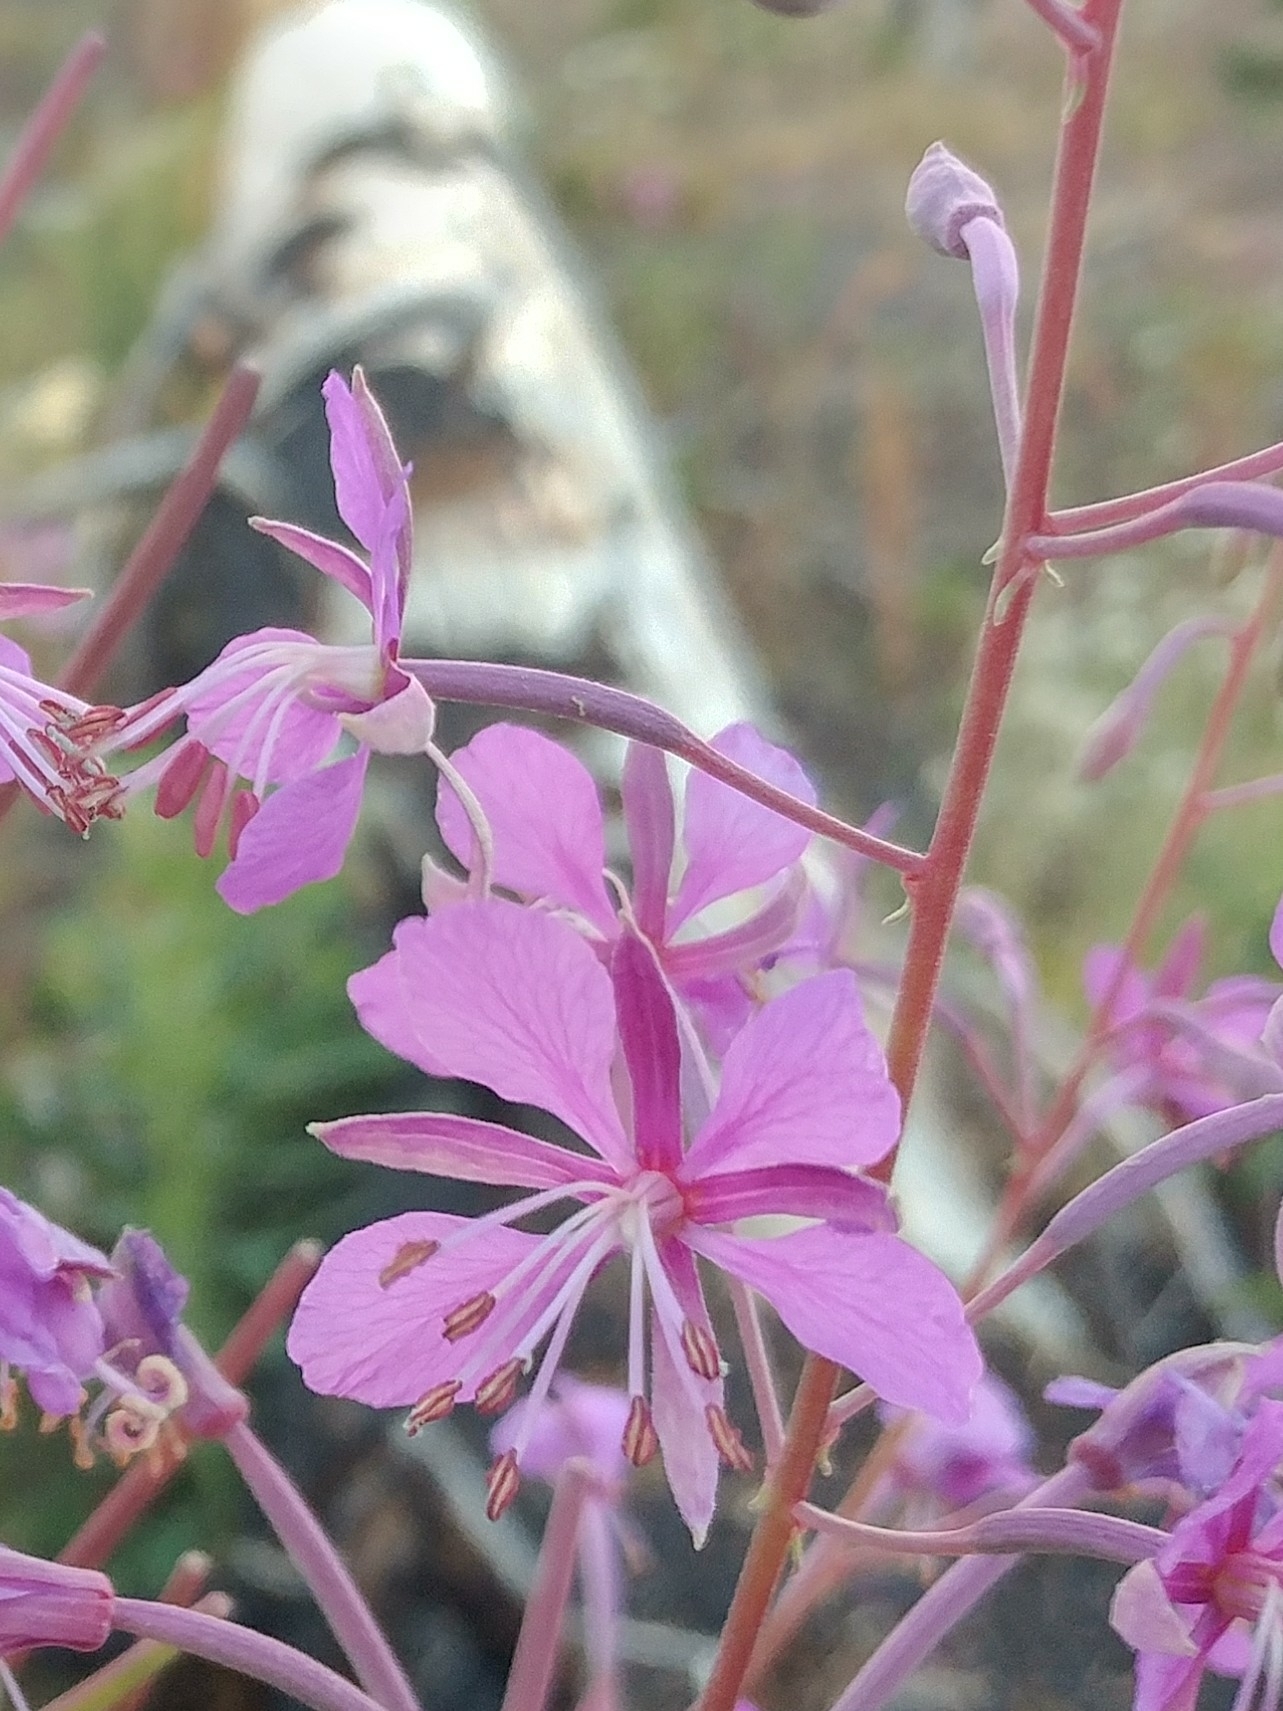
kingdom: Plantae
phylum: Tracheophyta
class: Magnoliopsida
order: Myrtales
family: Onagraceae
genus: Chamaenerion
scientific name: Chamaenerion angustifolium
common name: Fireweed
